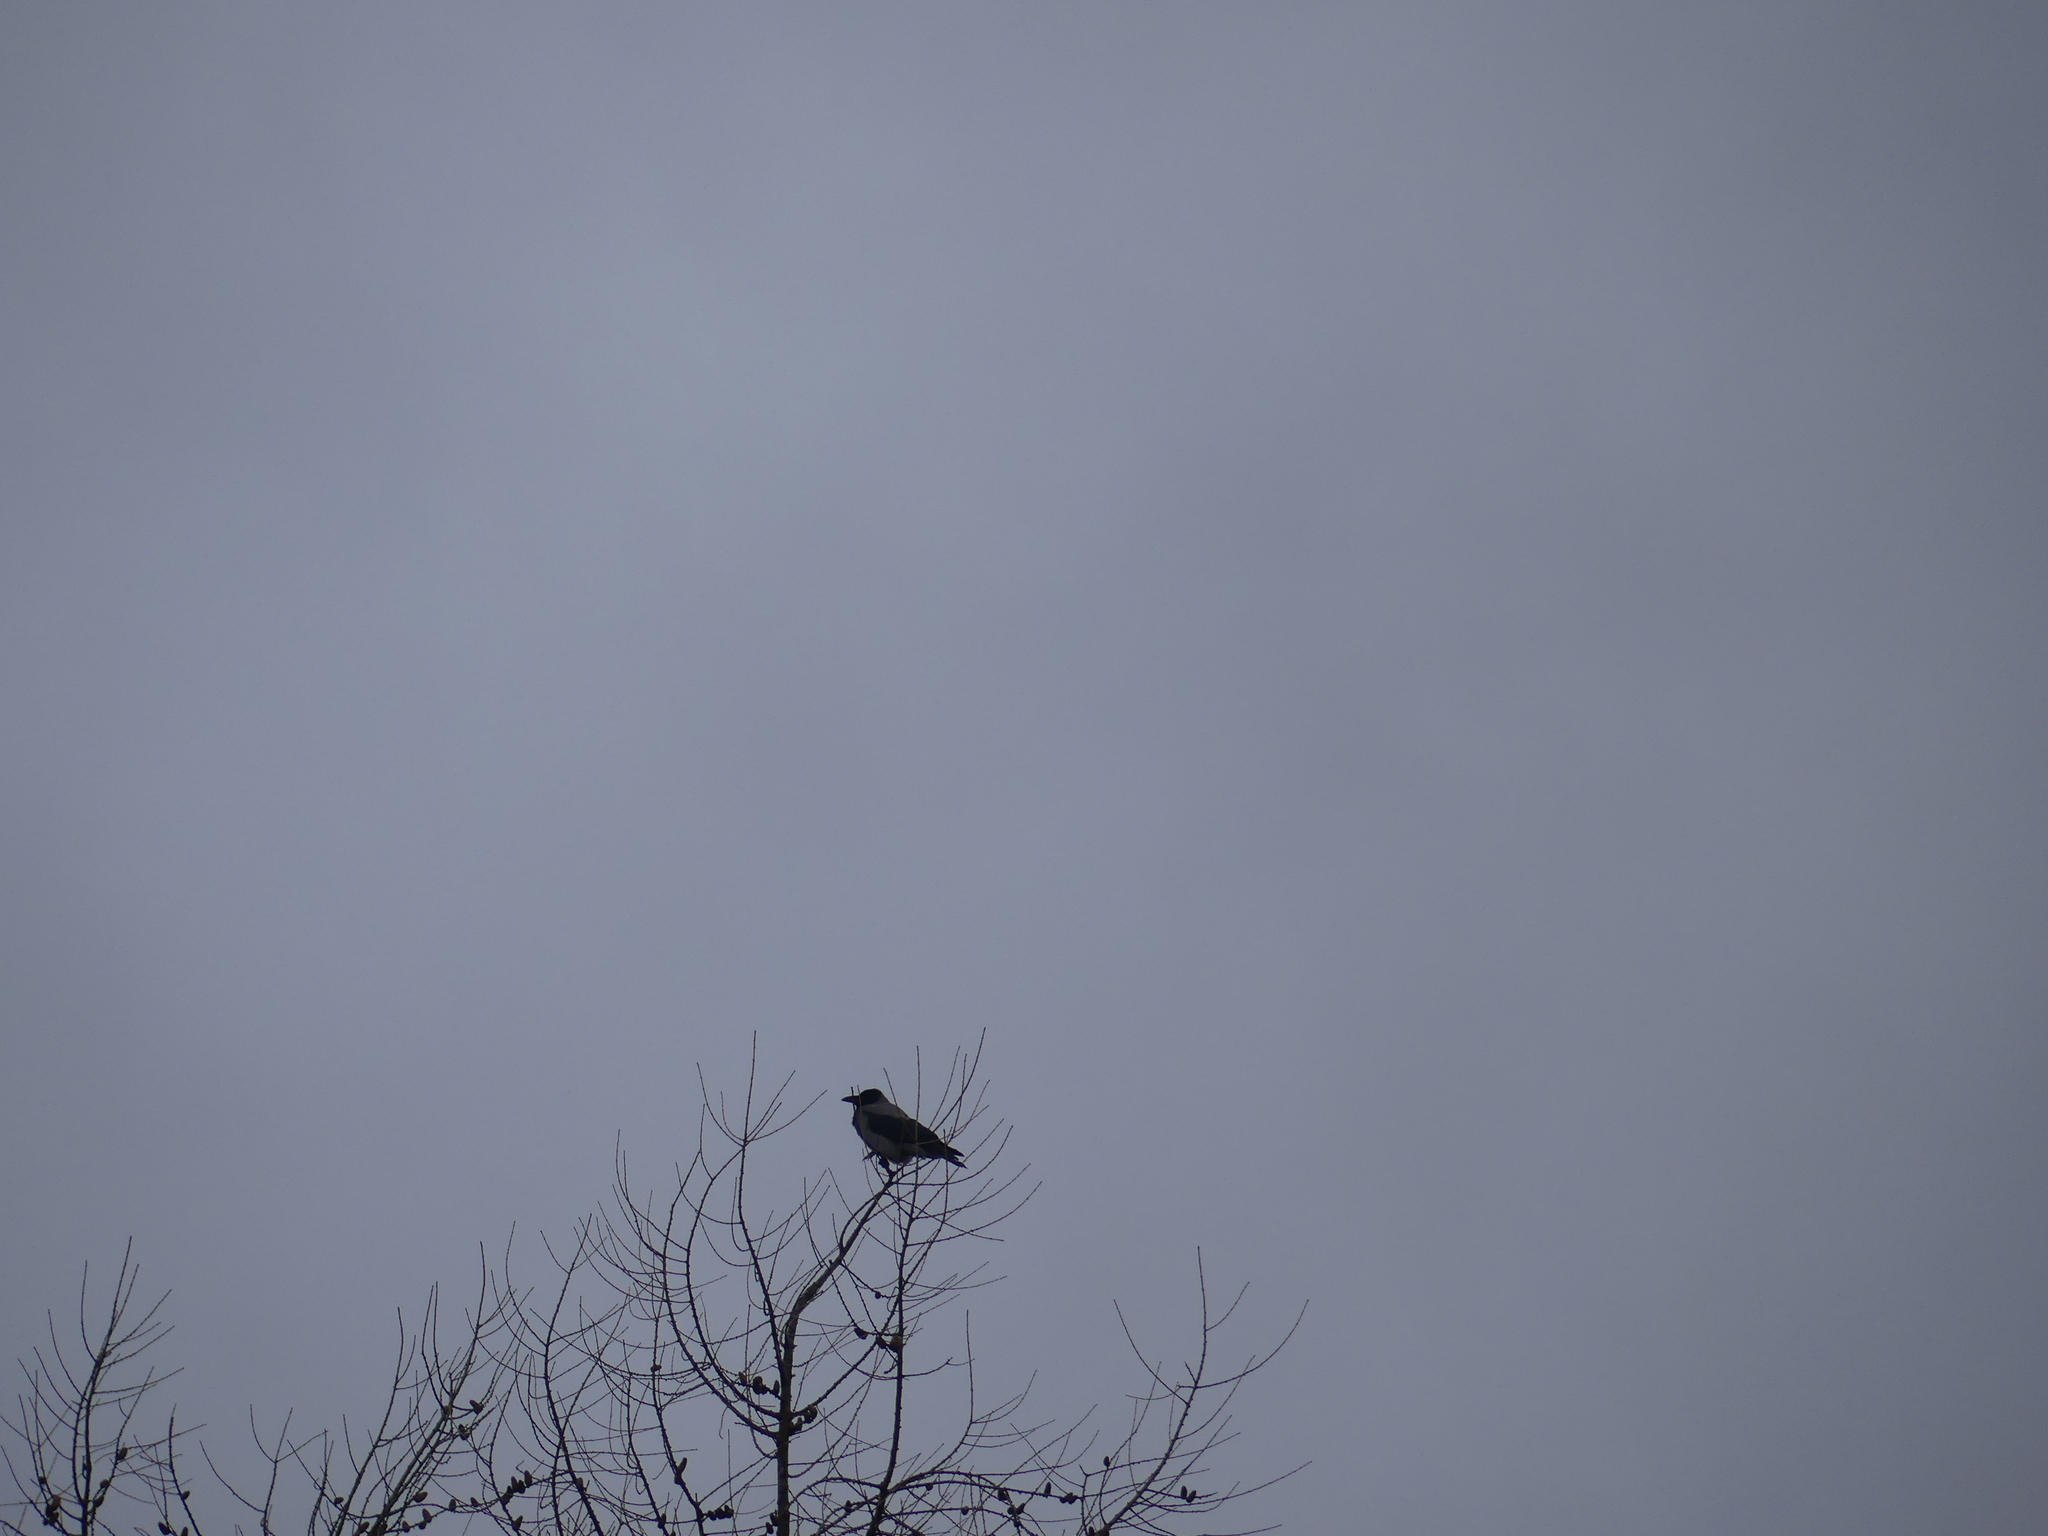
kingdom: Animalia
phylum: Chordata
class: Aves
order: Passeriformes
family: Corvidae
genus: Corvus
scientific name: Corvus cornix
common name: Hooded crow
